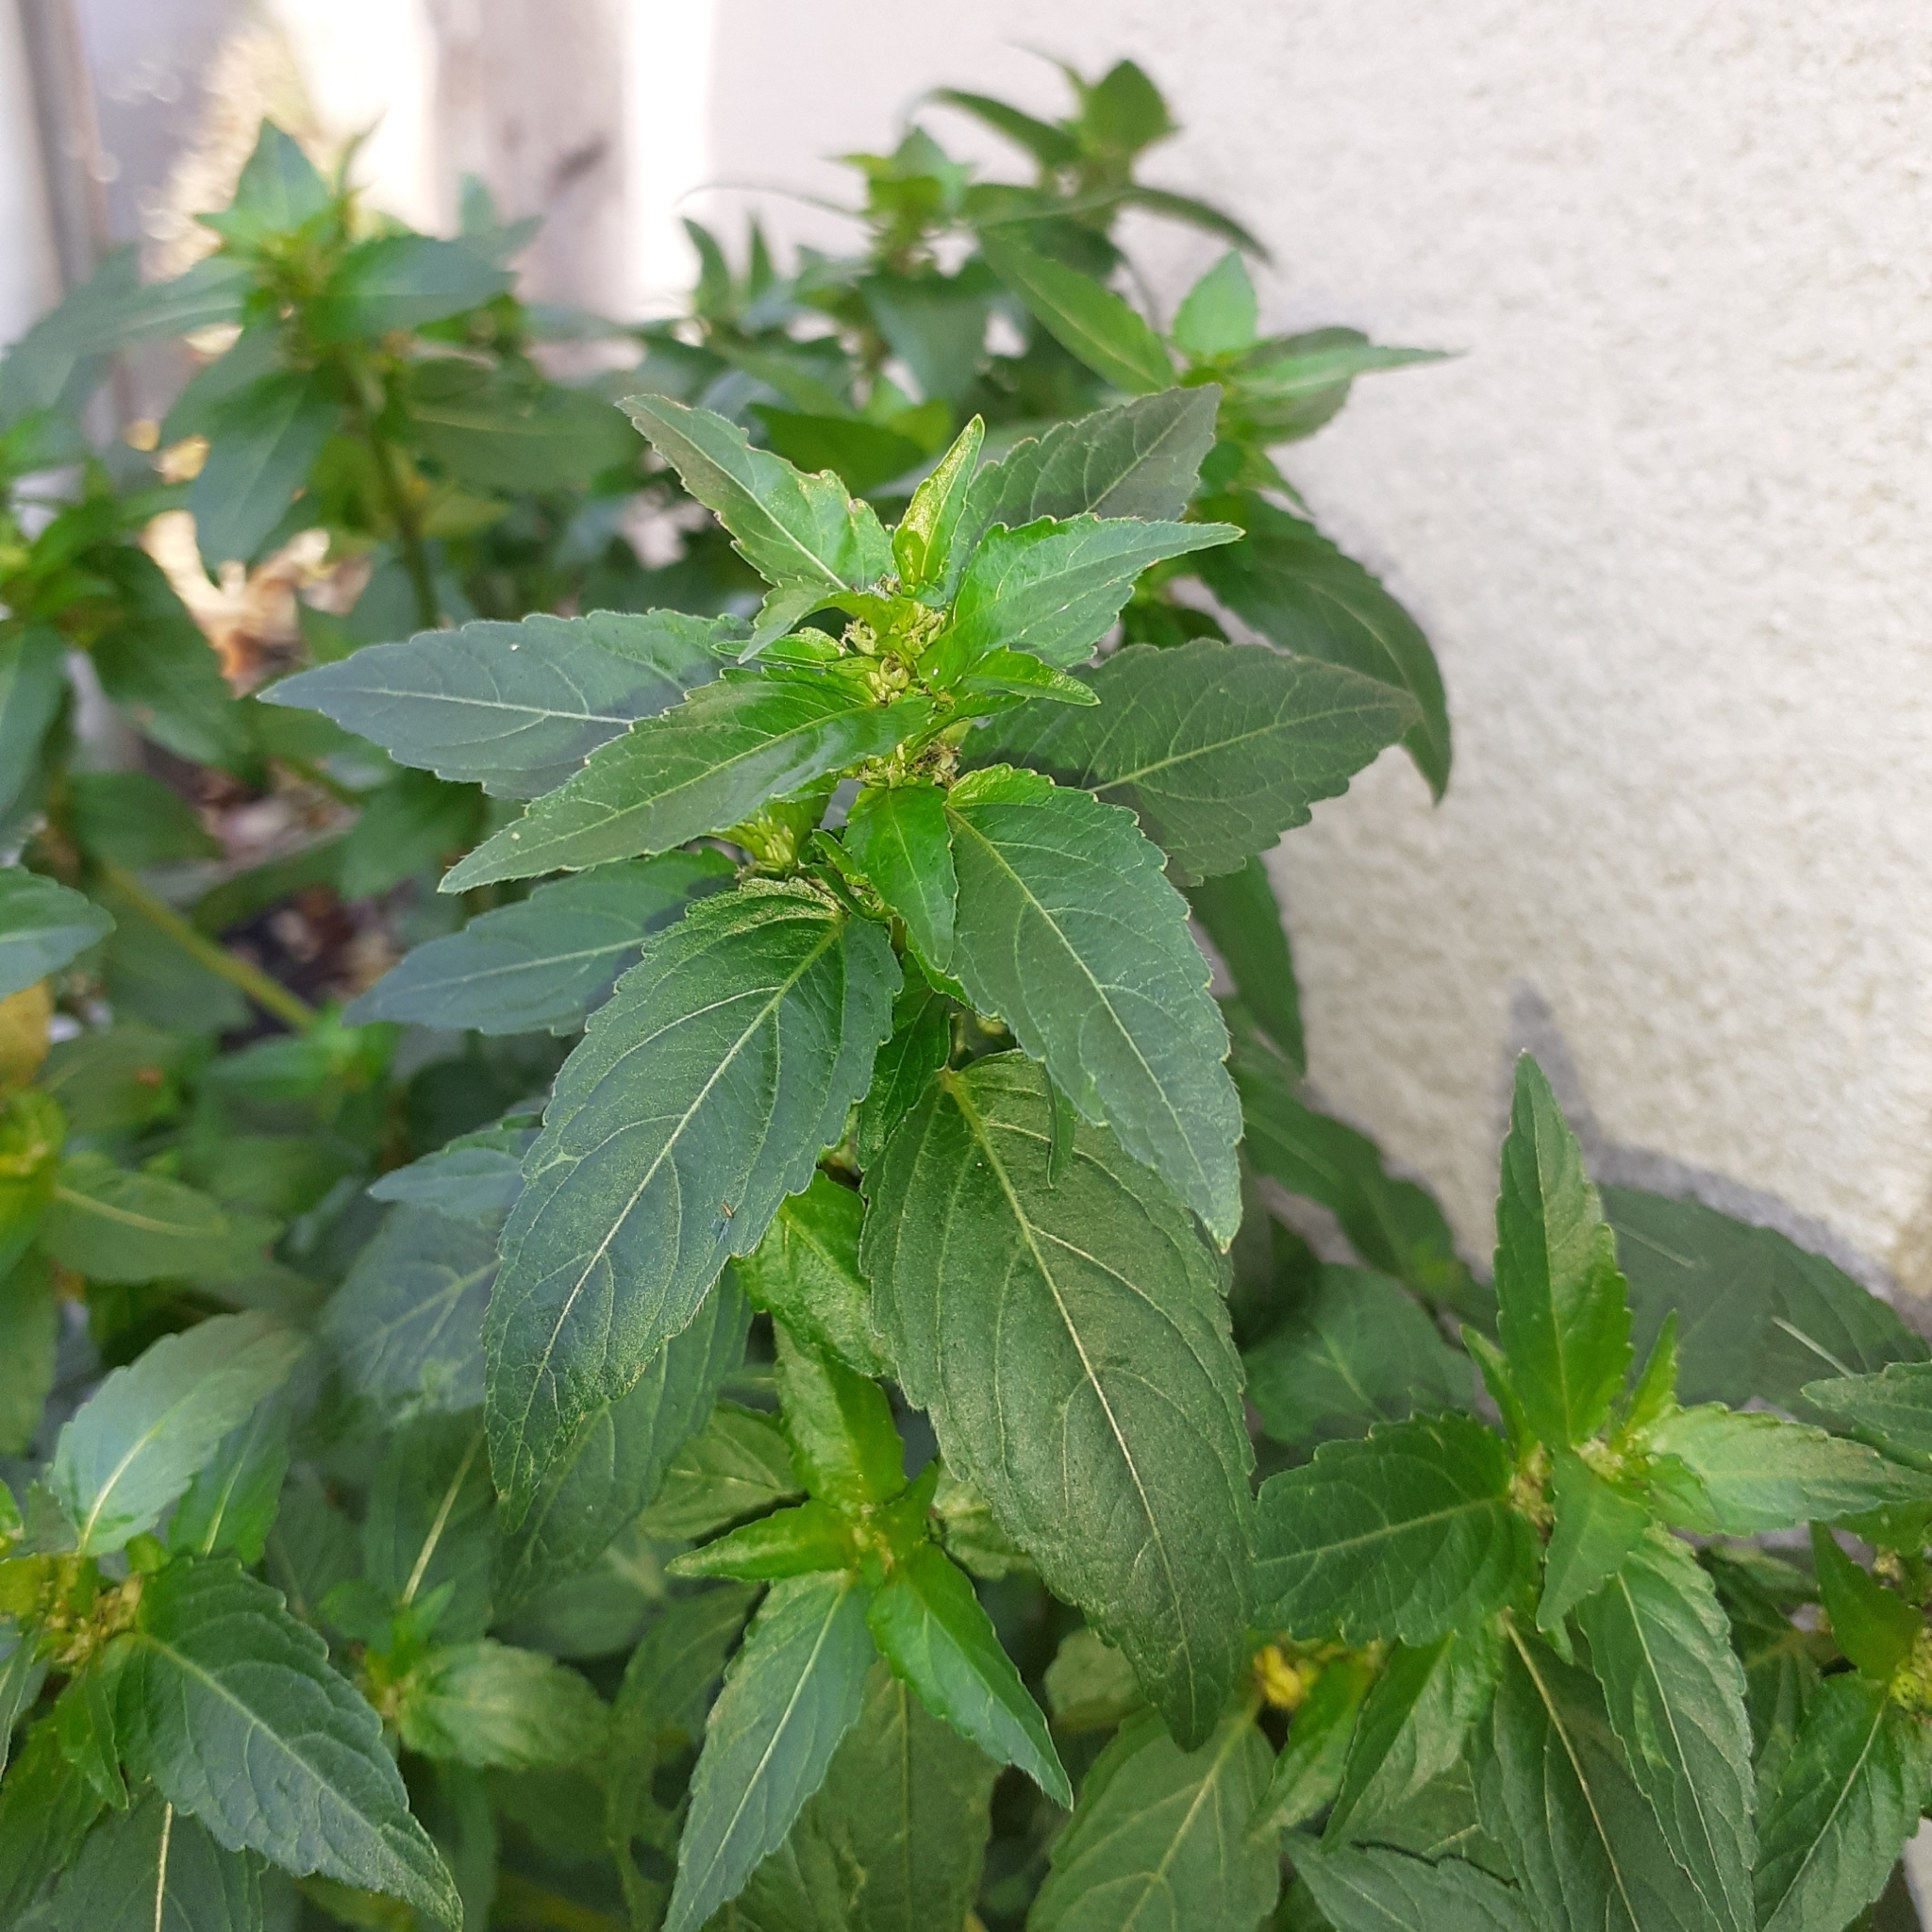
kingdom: Plantae
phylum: Tracheophyta
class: Magnoliopsida
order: Malpighiales
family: Euphorbiaceae
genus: Mercurialis
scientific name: Mercurialis annua
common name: Annual mercury
